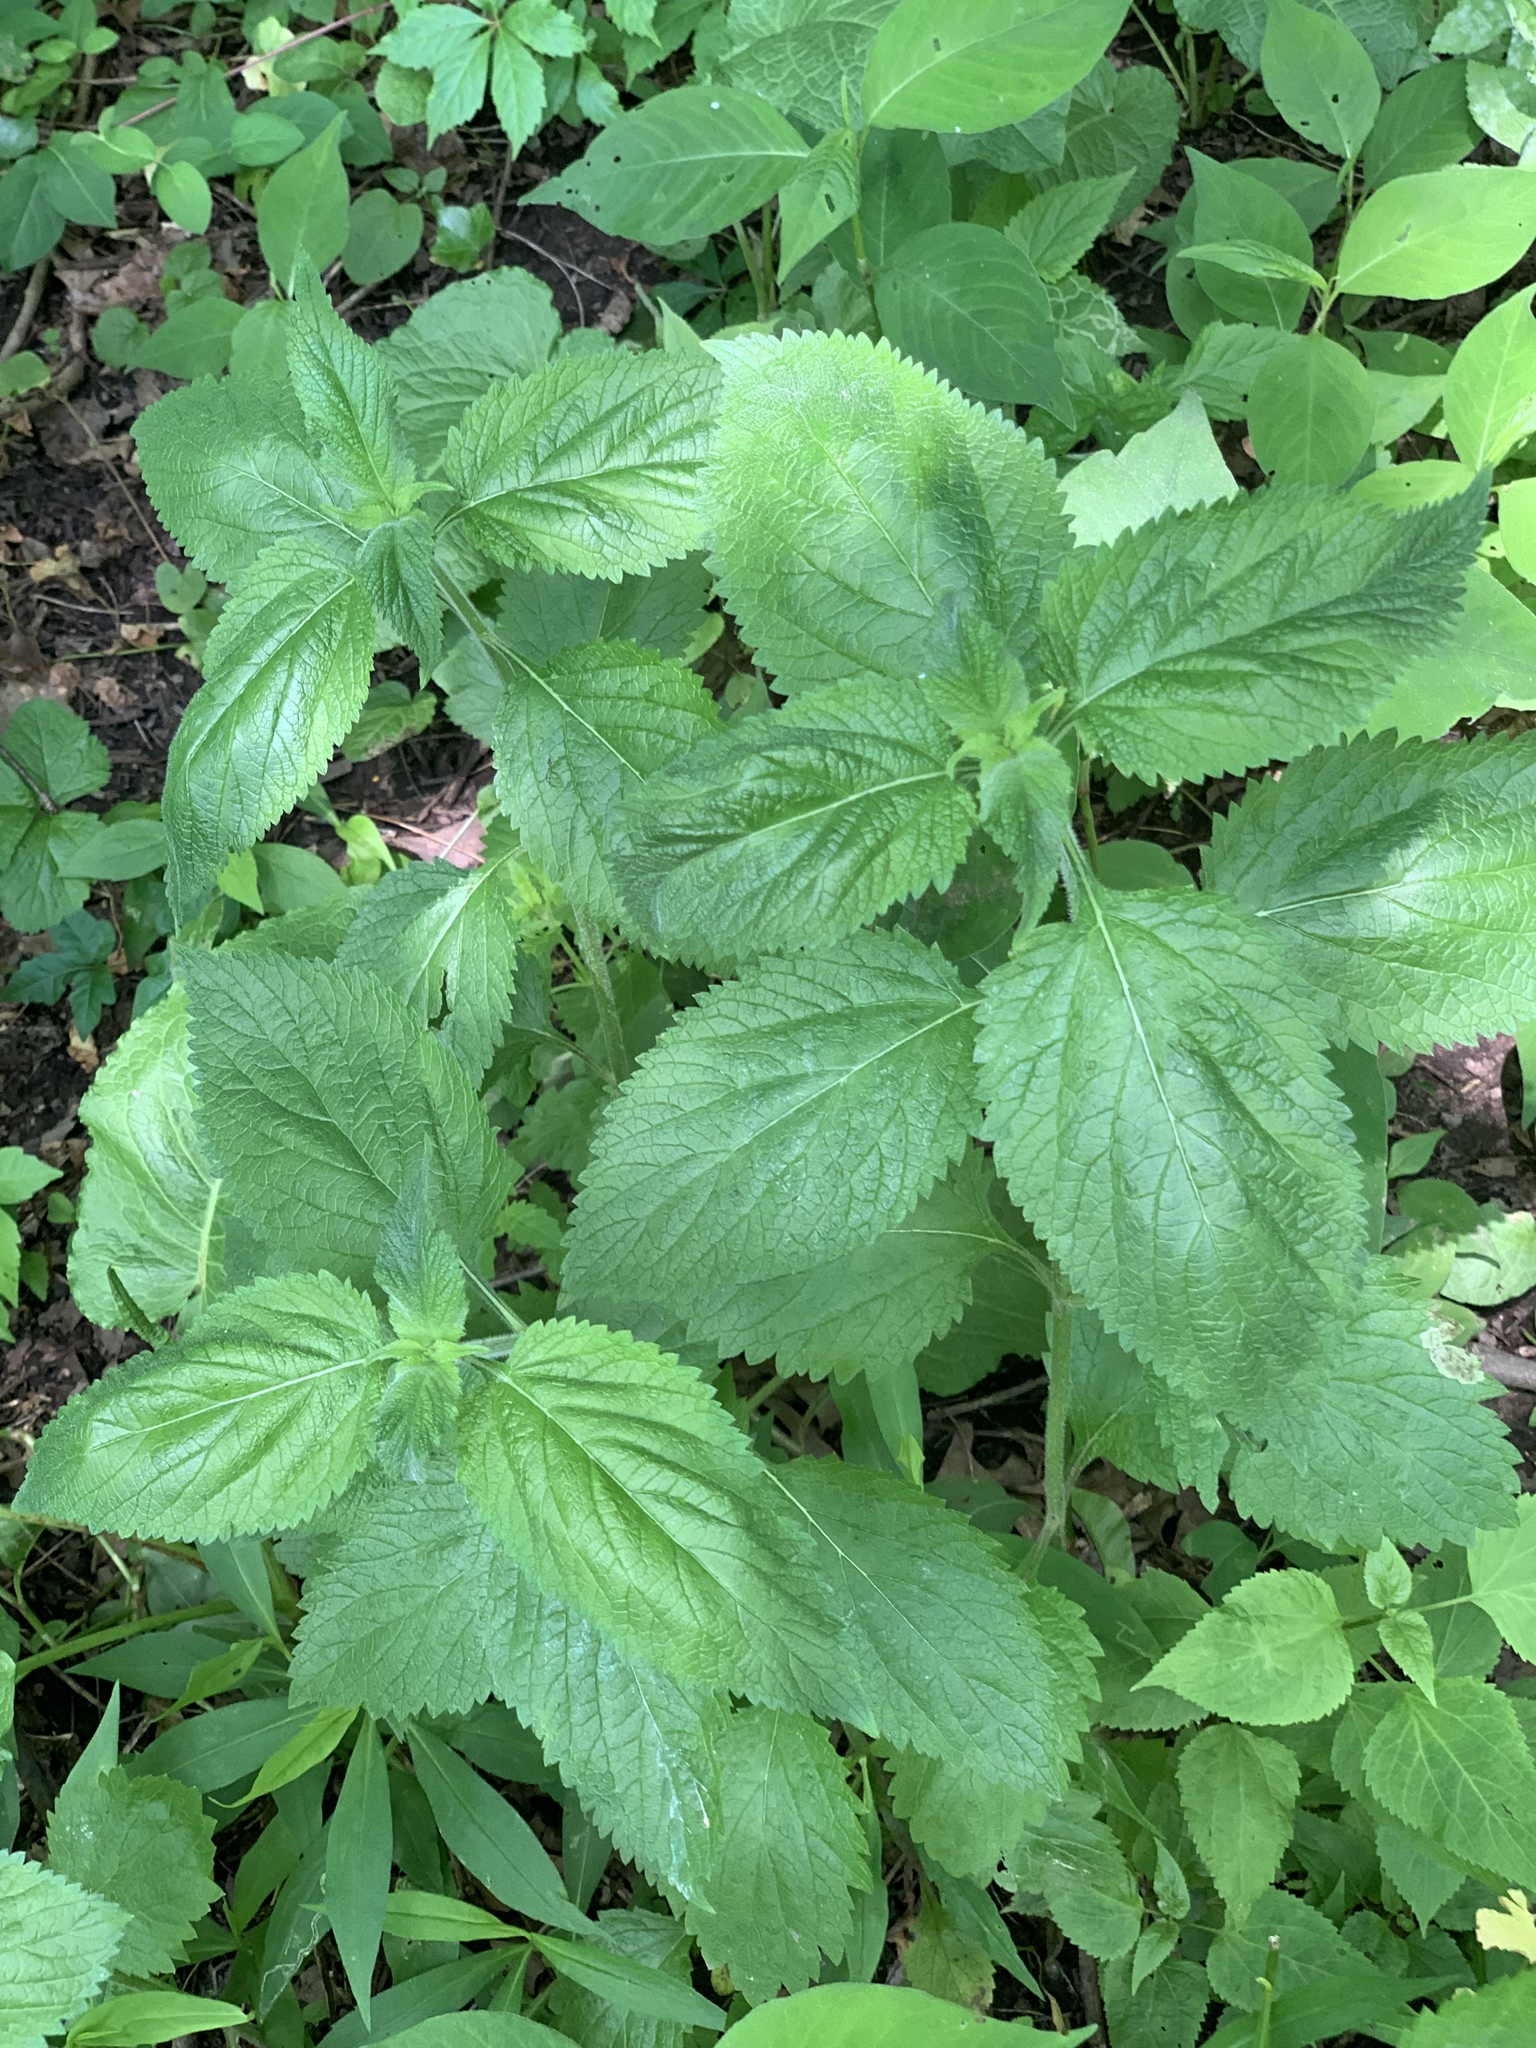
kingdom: Plantae
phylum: Tracheophyta
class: Magnoliopsida
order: Lamiales
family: Verbenaceae
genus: Verbena
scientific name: Verbena urticifolia
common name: Nettle-leaved vervain
